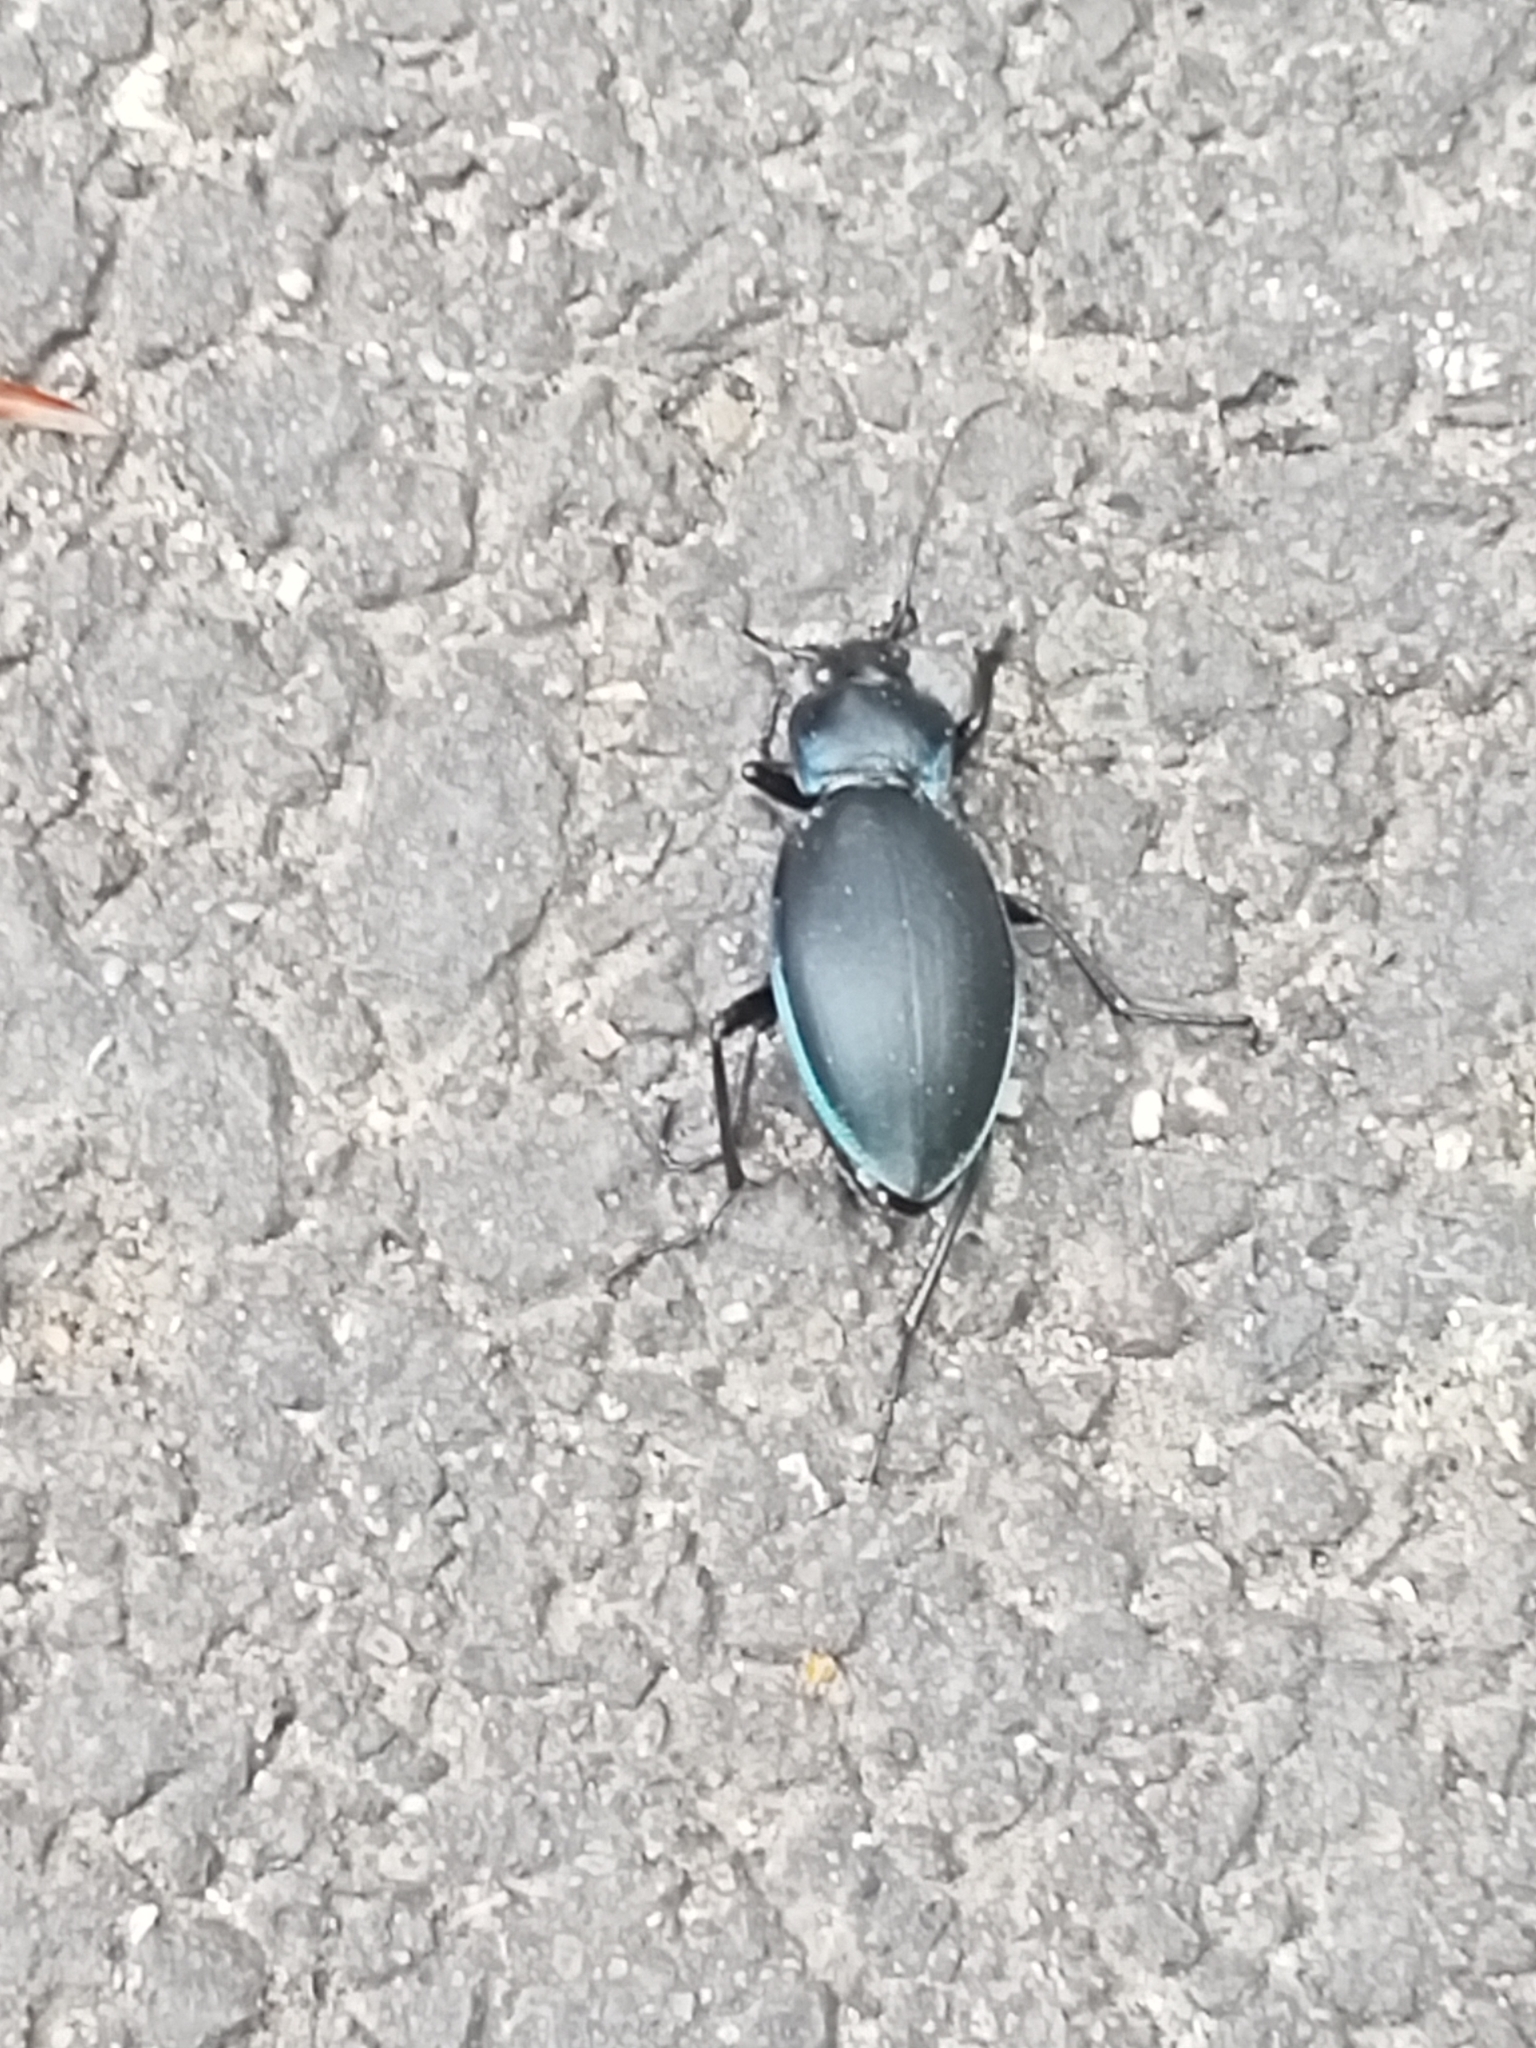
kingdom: Animalia
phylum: Arthropoda
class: Insecta
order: Coleoptera
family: Carabidae
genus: Carabus
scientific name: Carabus violaceus
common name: Violet ground beetle
